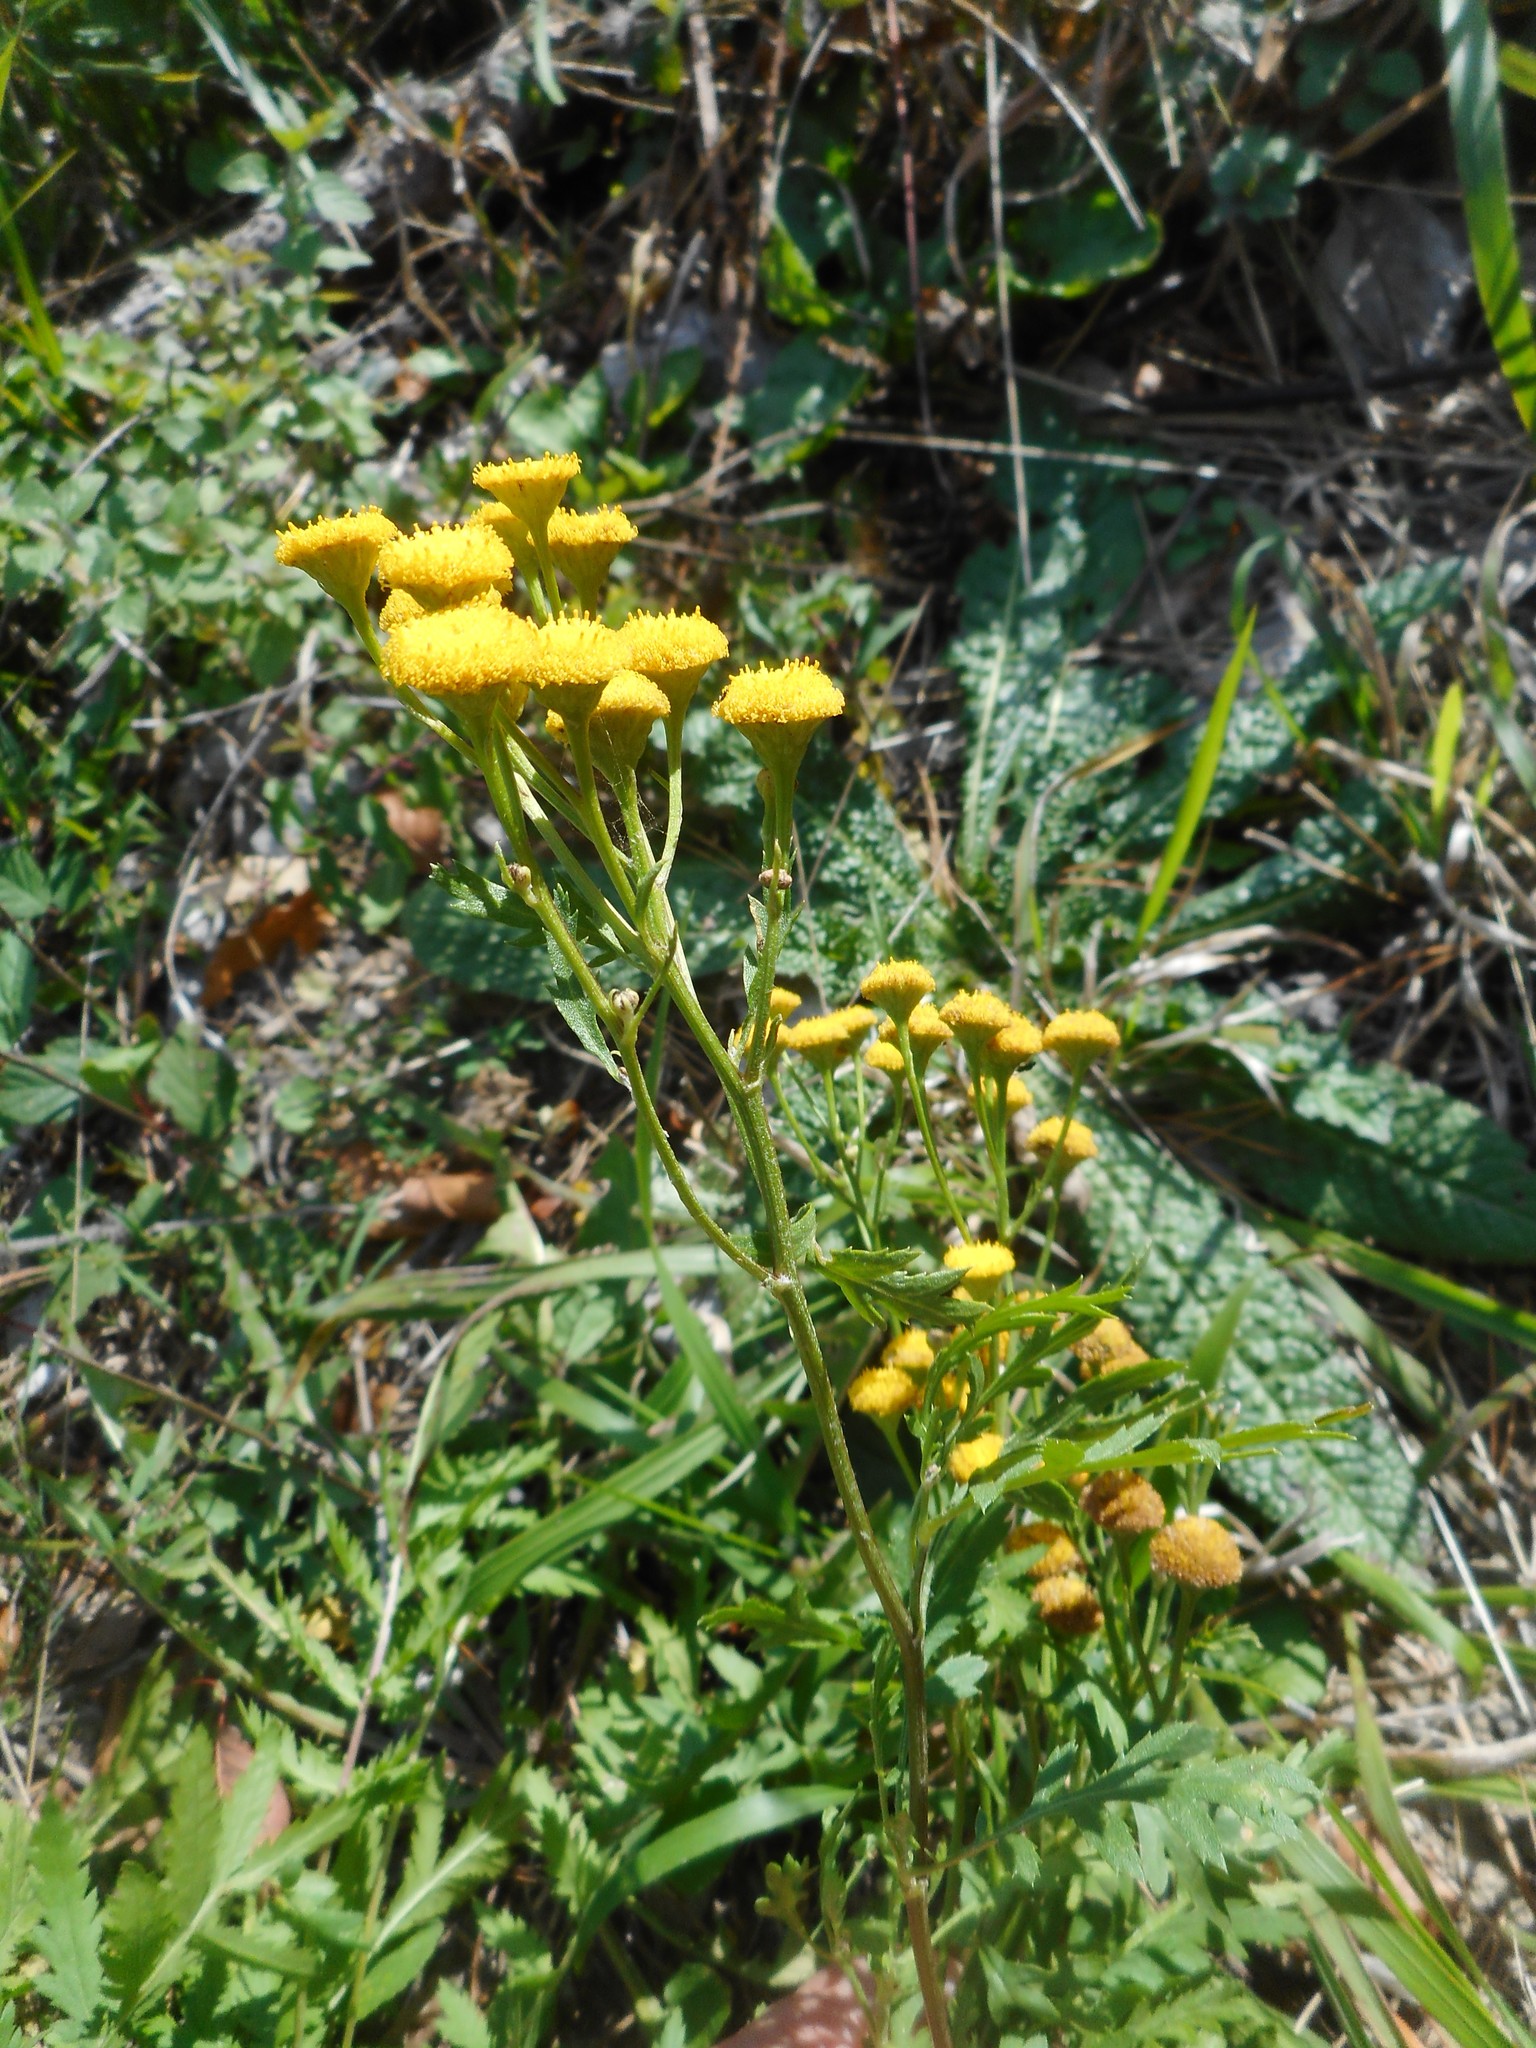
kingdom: Plantae
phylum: Tracheophyta
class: Magnoliopsida
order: Asterales
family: Asteraceae
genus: Tanacetum
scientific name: Tanacetum vulgare
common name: Common tansy
